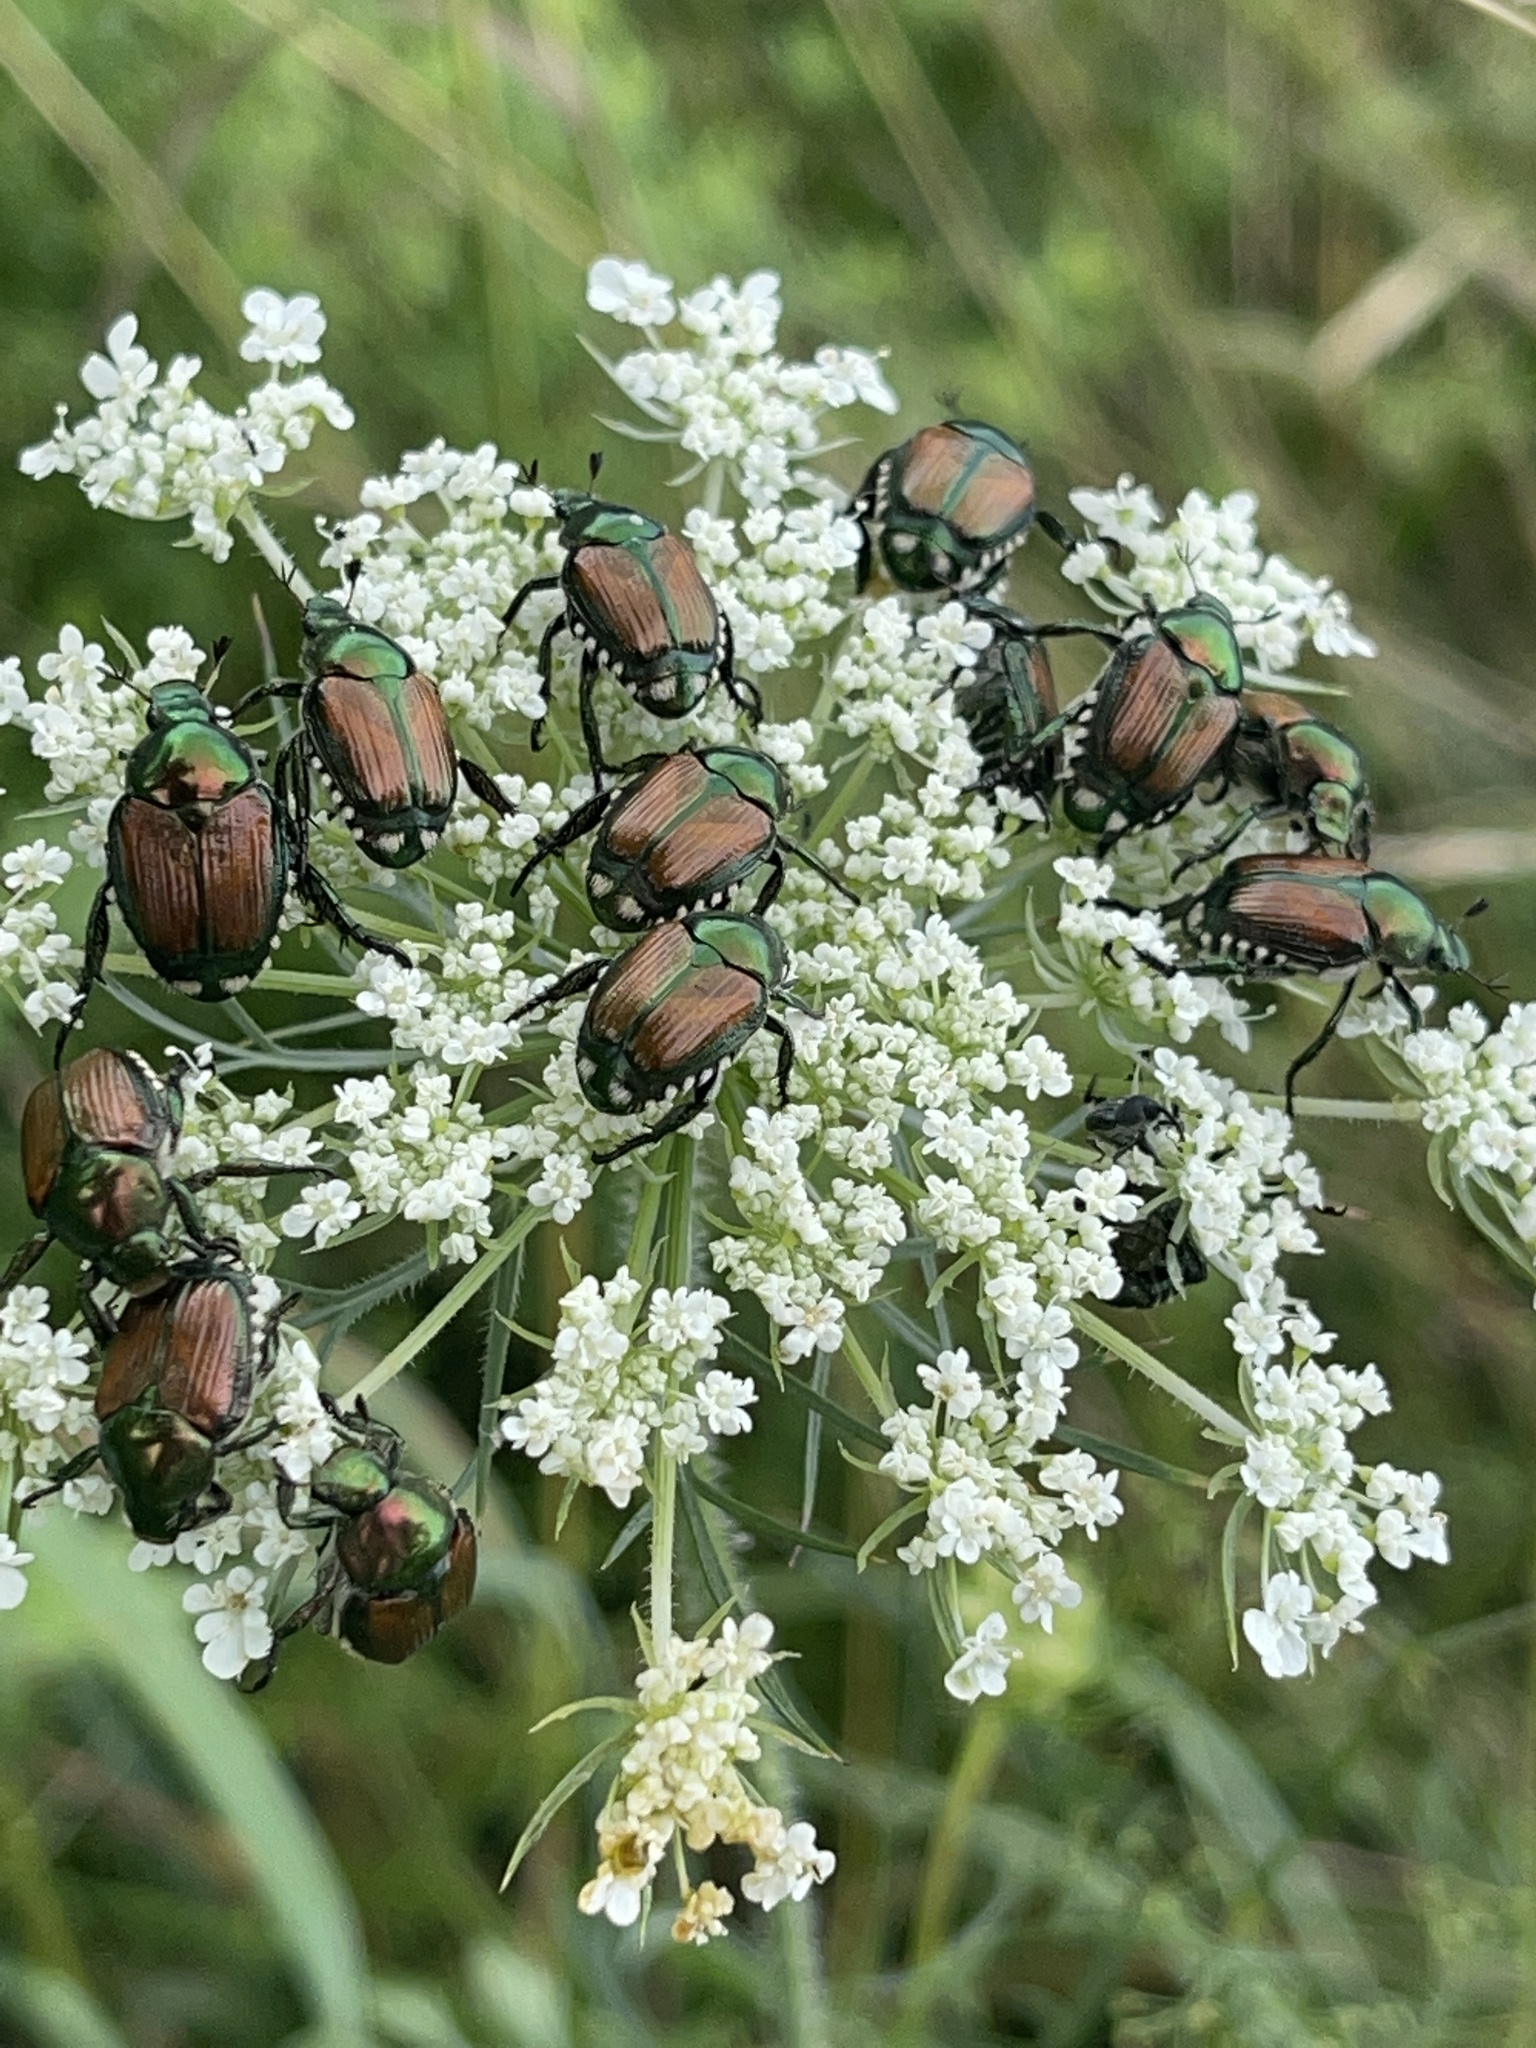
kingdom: Animalia
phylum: Arthropoda
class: Insecta
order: Coleoptera
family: Scarabaeidae
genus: Popillia
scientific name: Popillia japonica
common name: Japanese beetle
